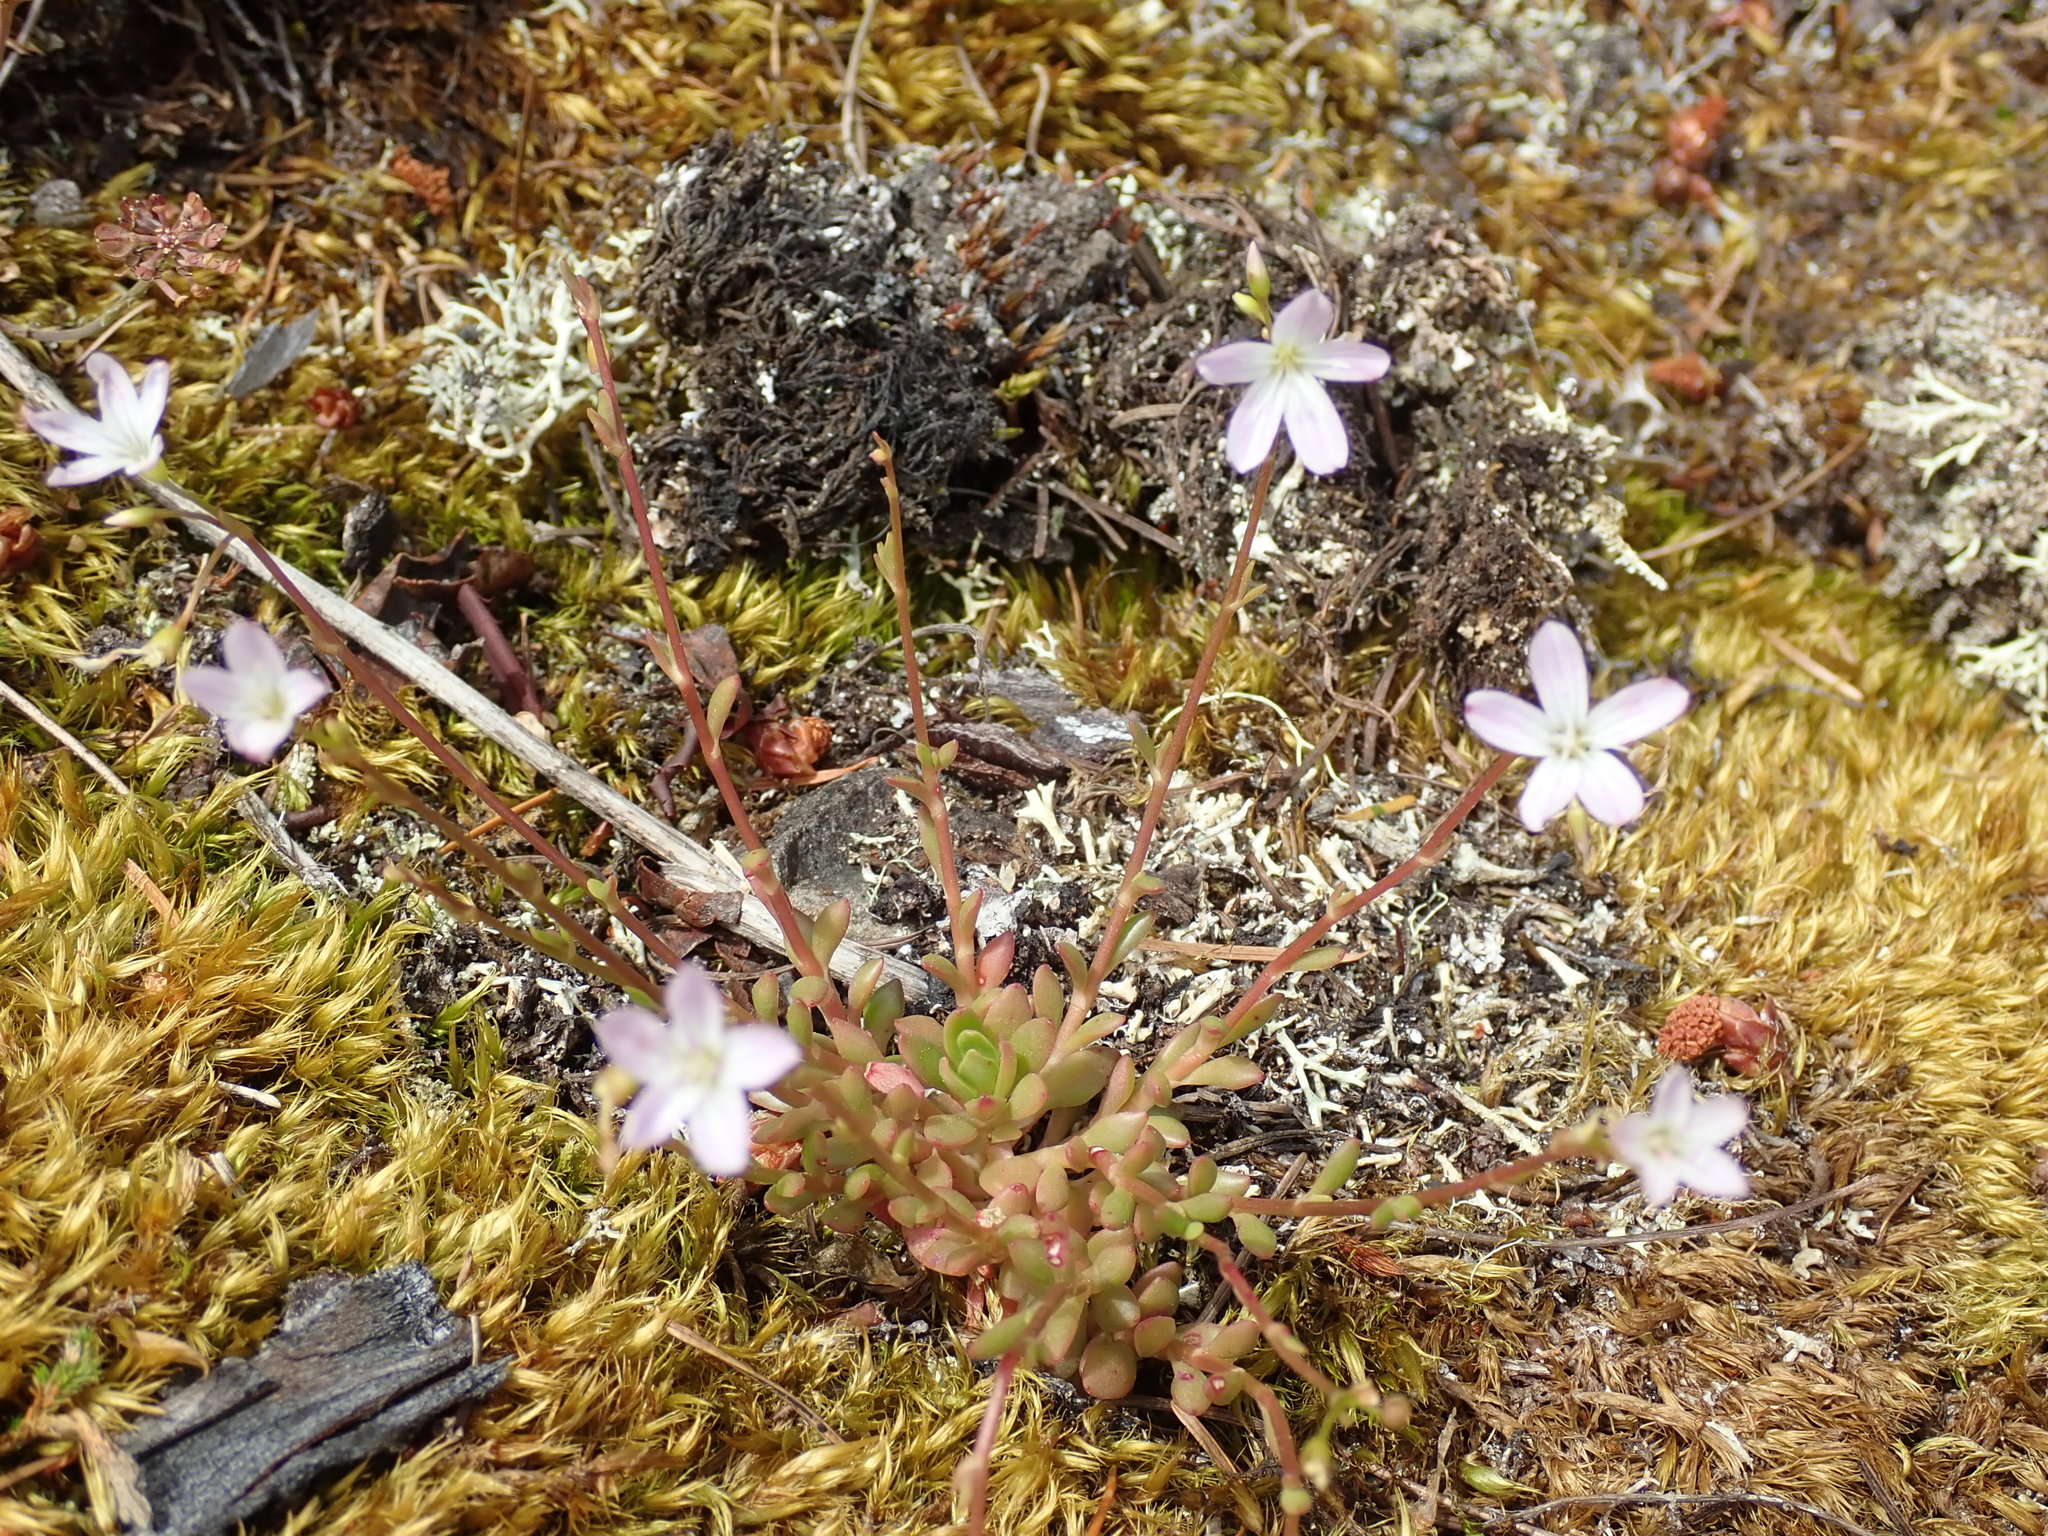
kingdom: Plantae
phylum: Tracheophyta
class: Magnoliopsida
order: Caryophyllales
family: Montiaceae
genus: Montia
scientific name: Montia parvifolia
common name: Small-leaved blinks
